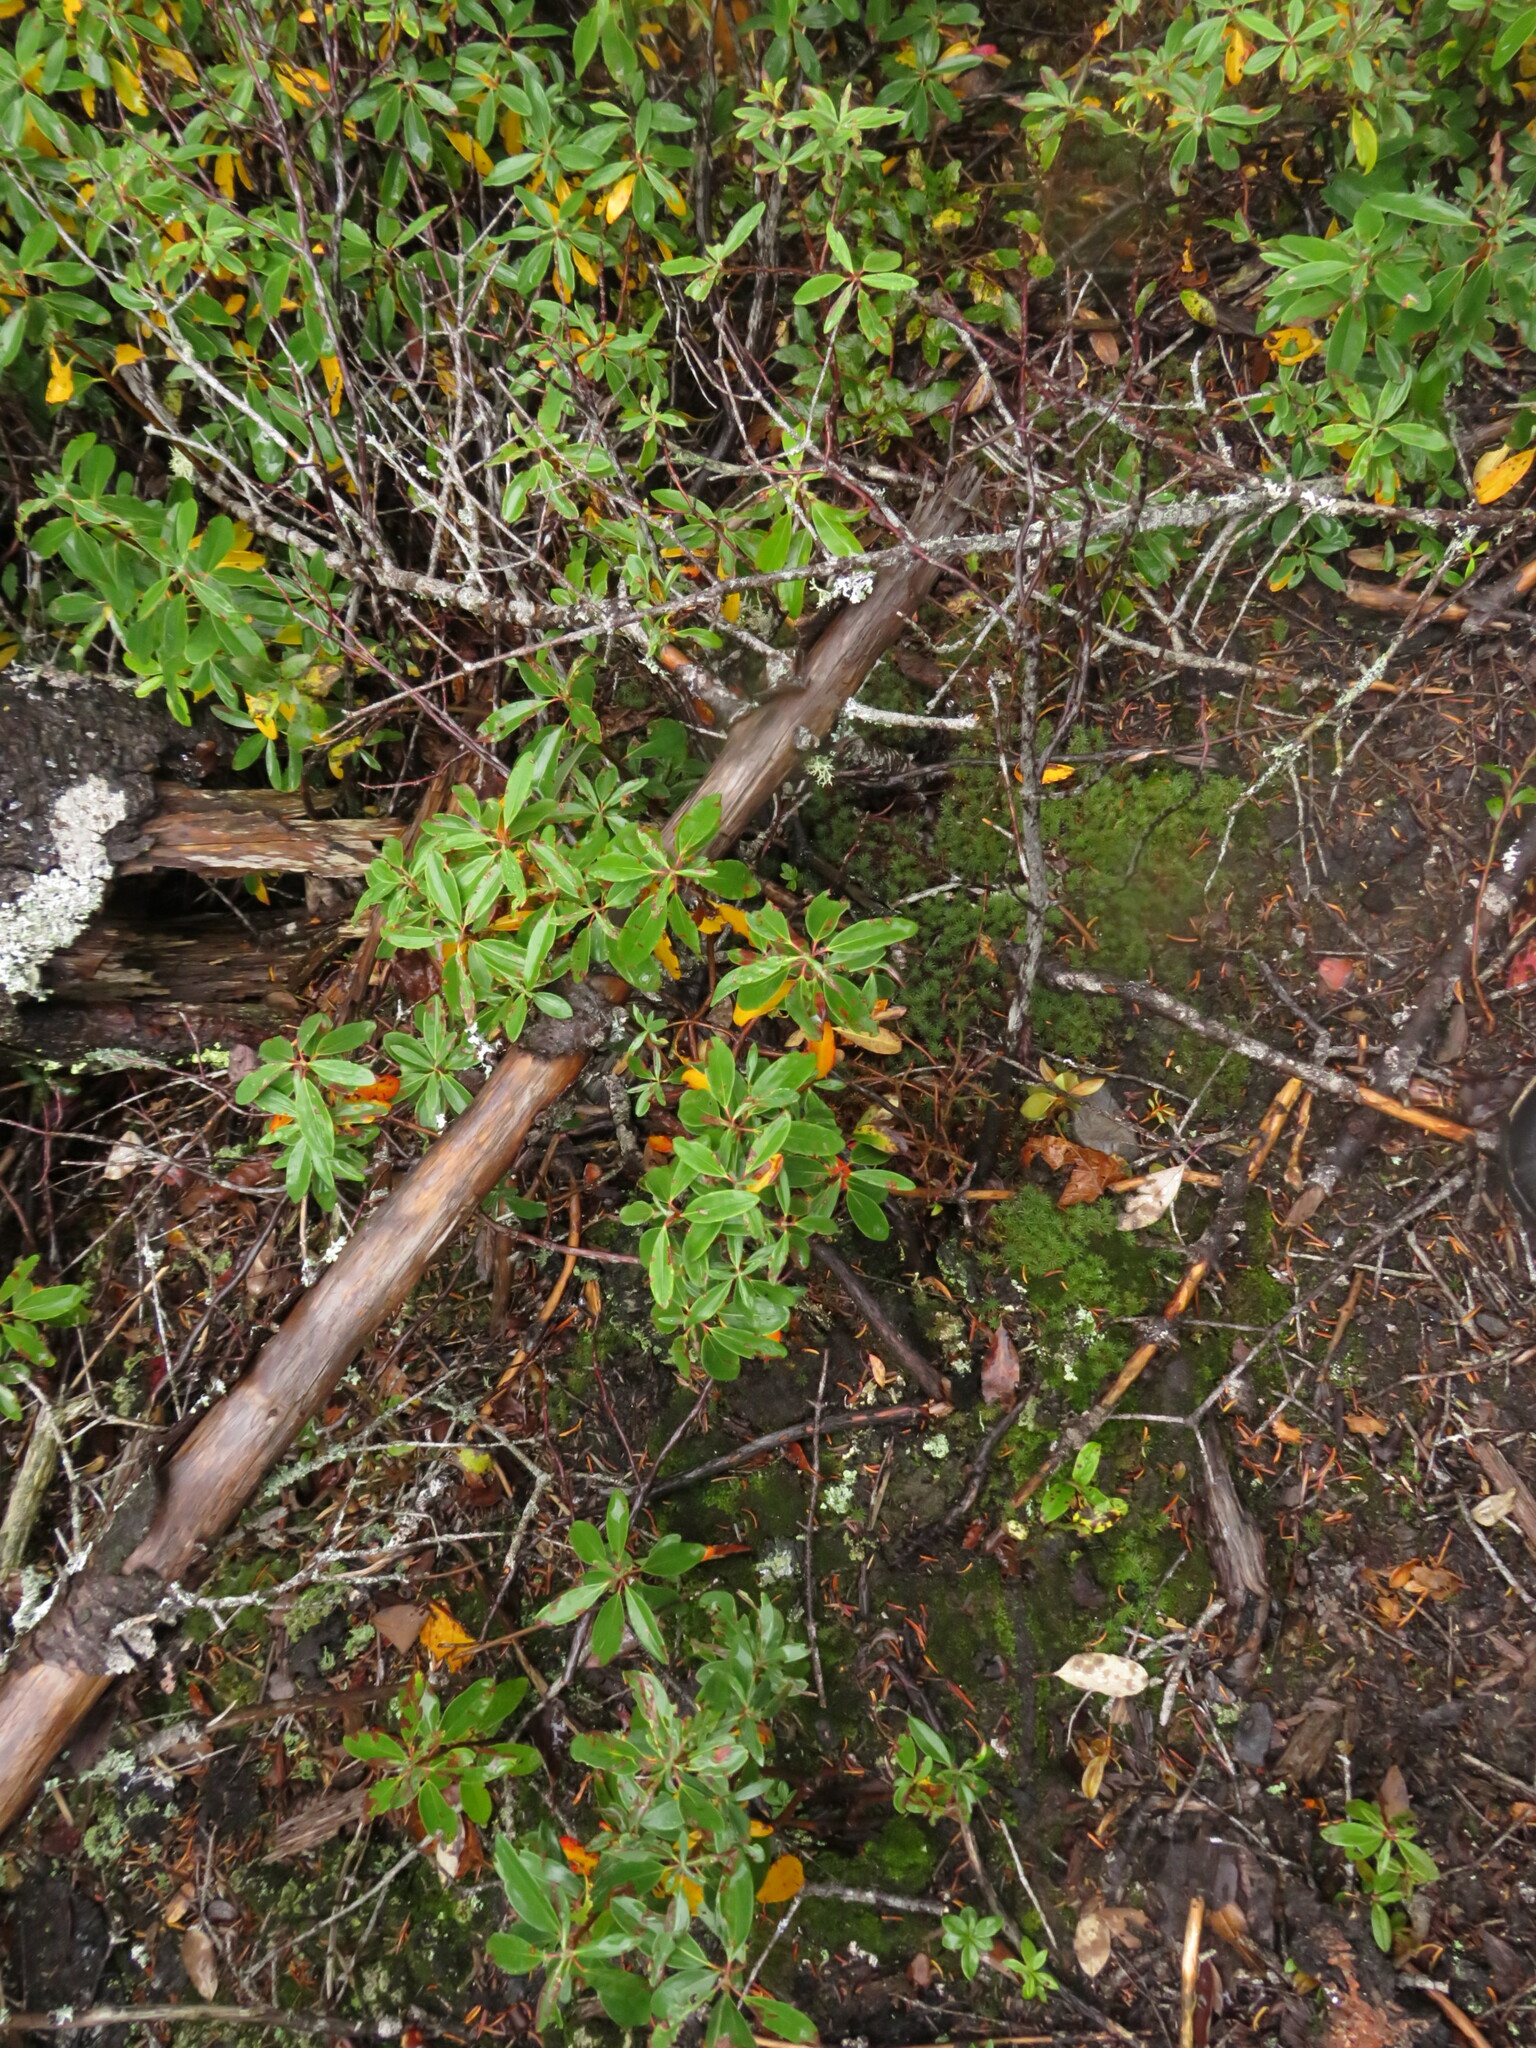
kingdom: Plantae
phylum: Tracheophyta
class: Magnoliopsida
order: Ericales
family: Ericaceae
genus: Kalmia
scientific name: Kalmia angustifolia
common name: Sheep-laurel
